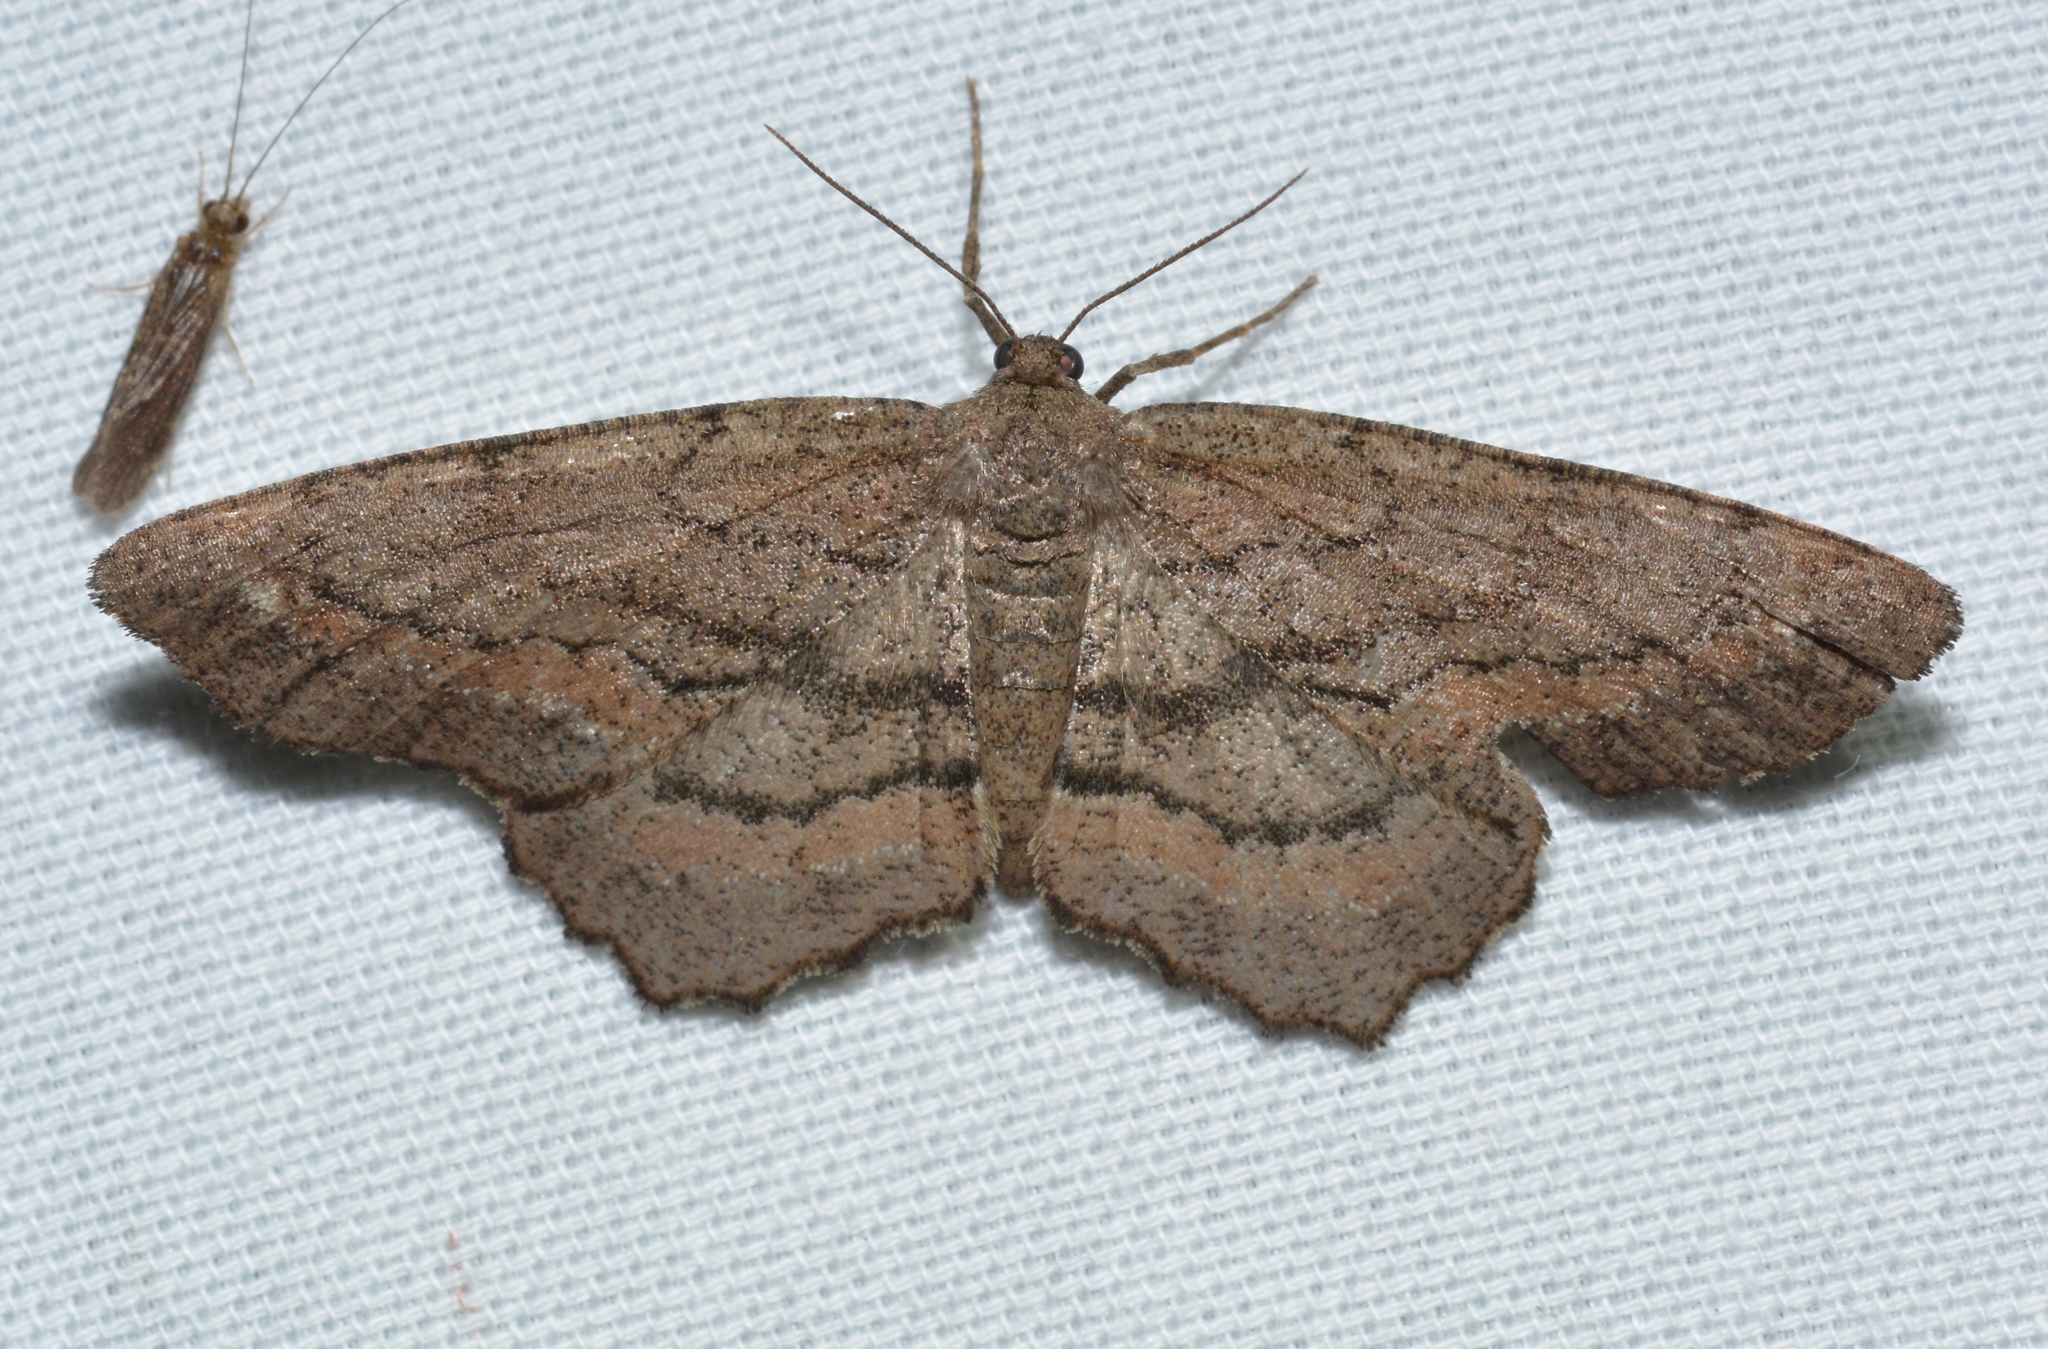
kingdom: Animalia
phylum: Arthropoda
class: Insecta
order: Lepidoptera
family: Geometridae
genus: Hypagyrtis
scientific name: Hypagyrtis brendae
